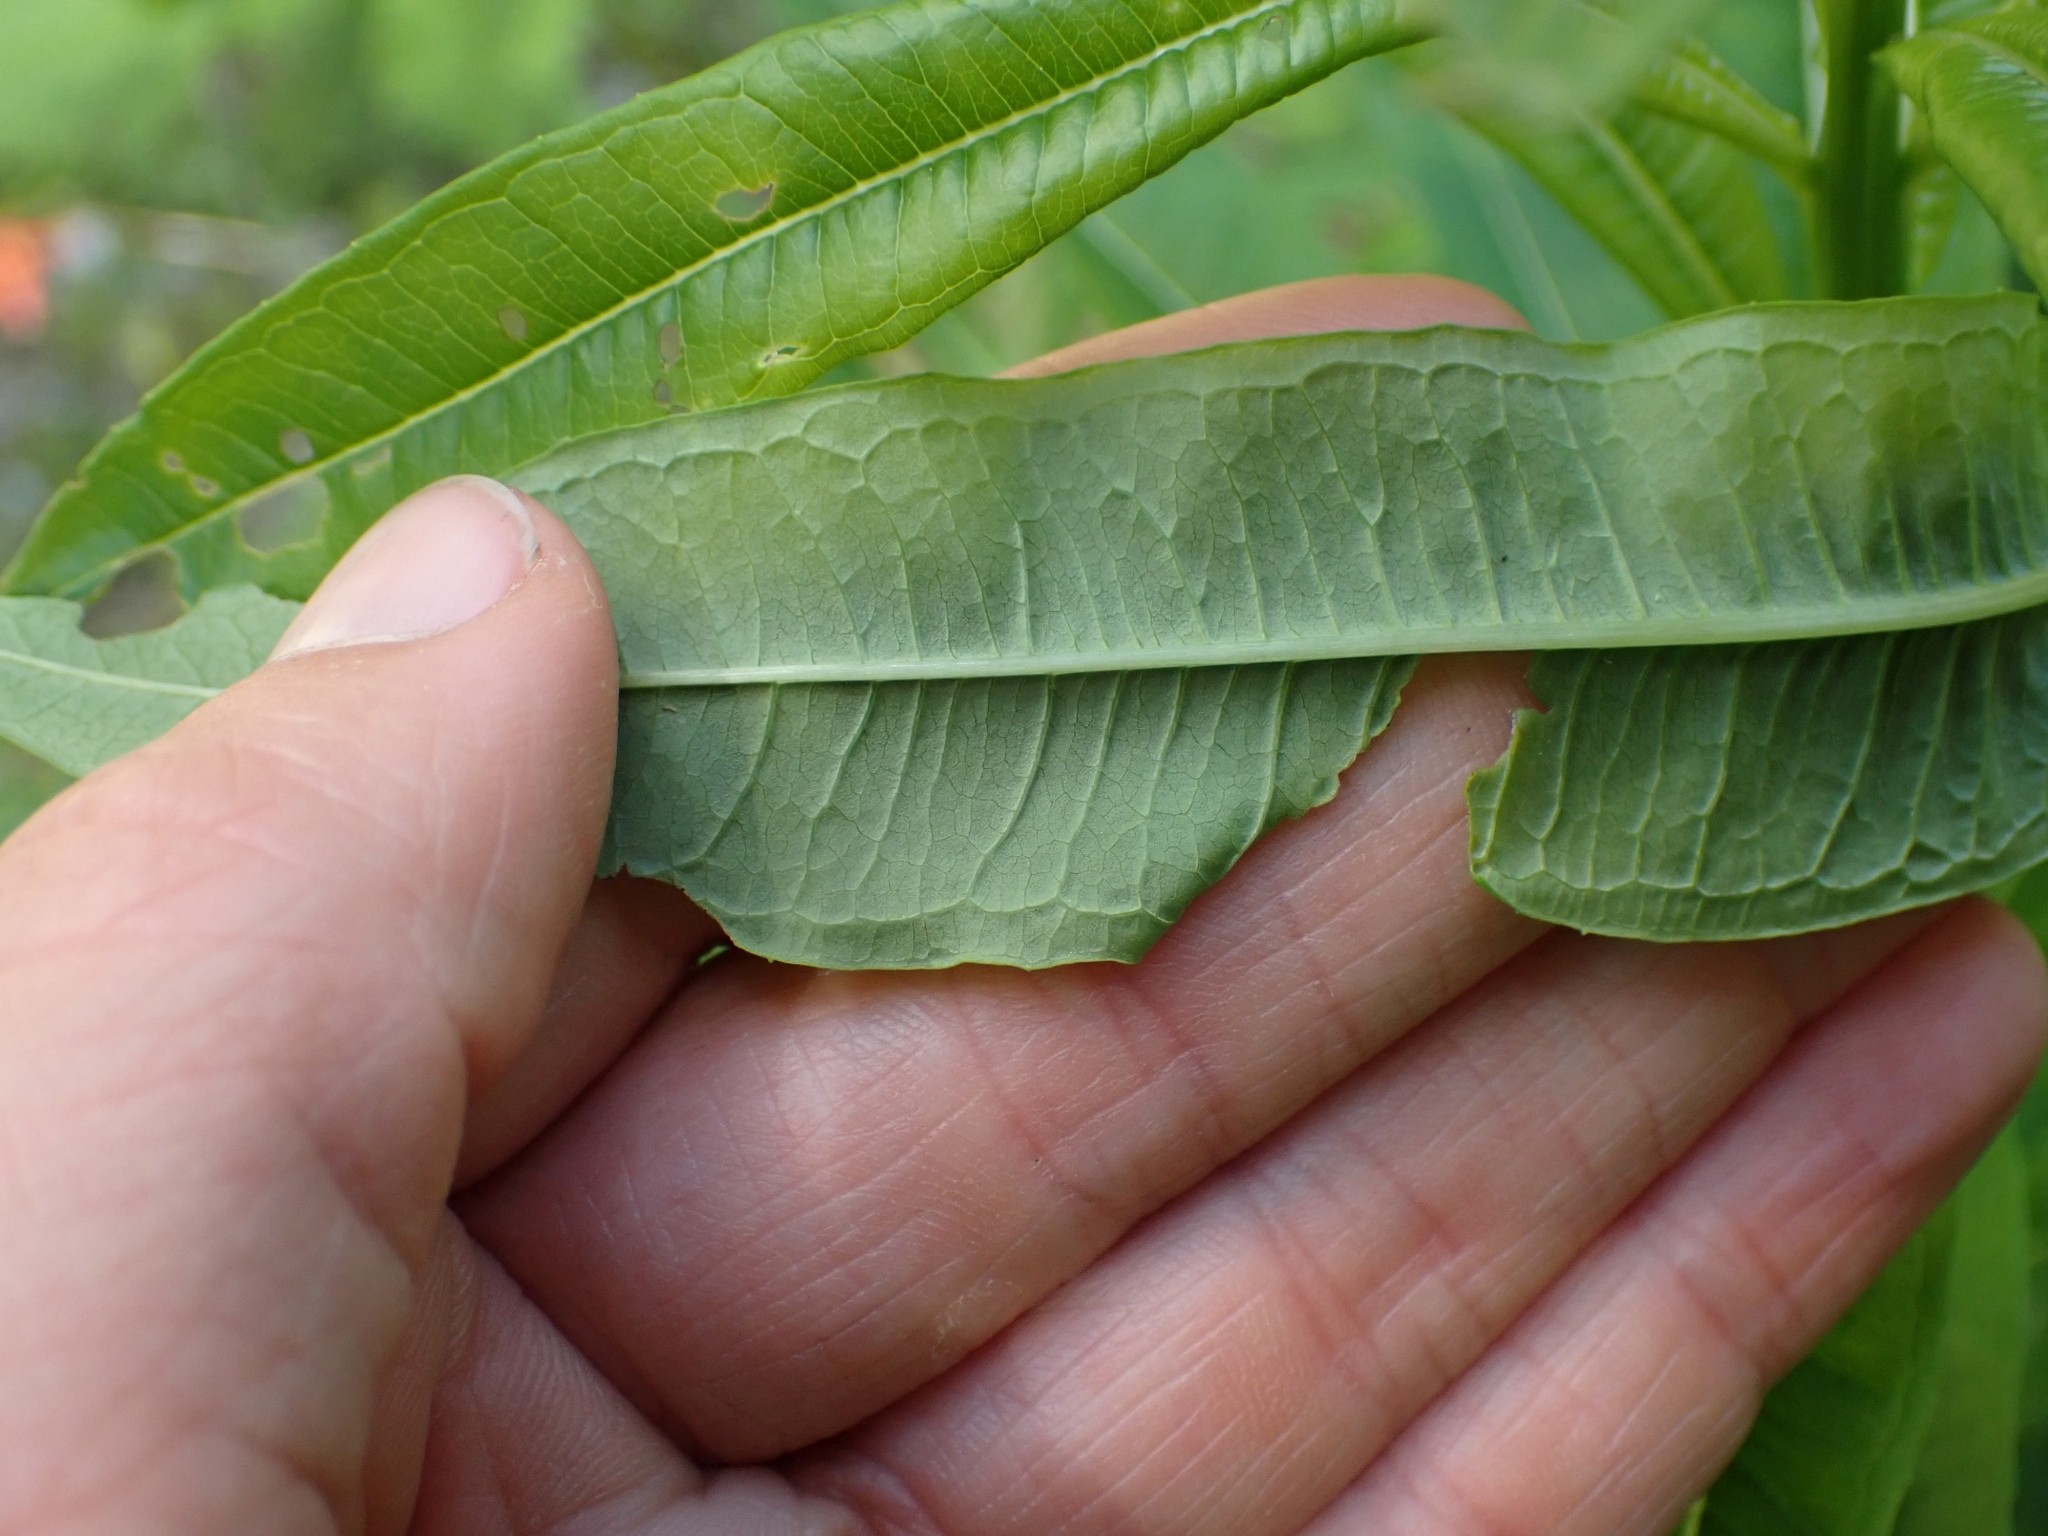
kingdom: Plantae
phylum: Tracheophyta
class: Magnoliopsida
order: Myrtales
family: Onagraceae
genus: Chamaenerion
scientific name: Chamaenerion angustifolium
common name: Fireweed
